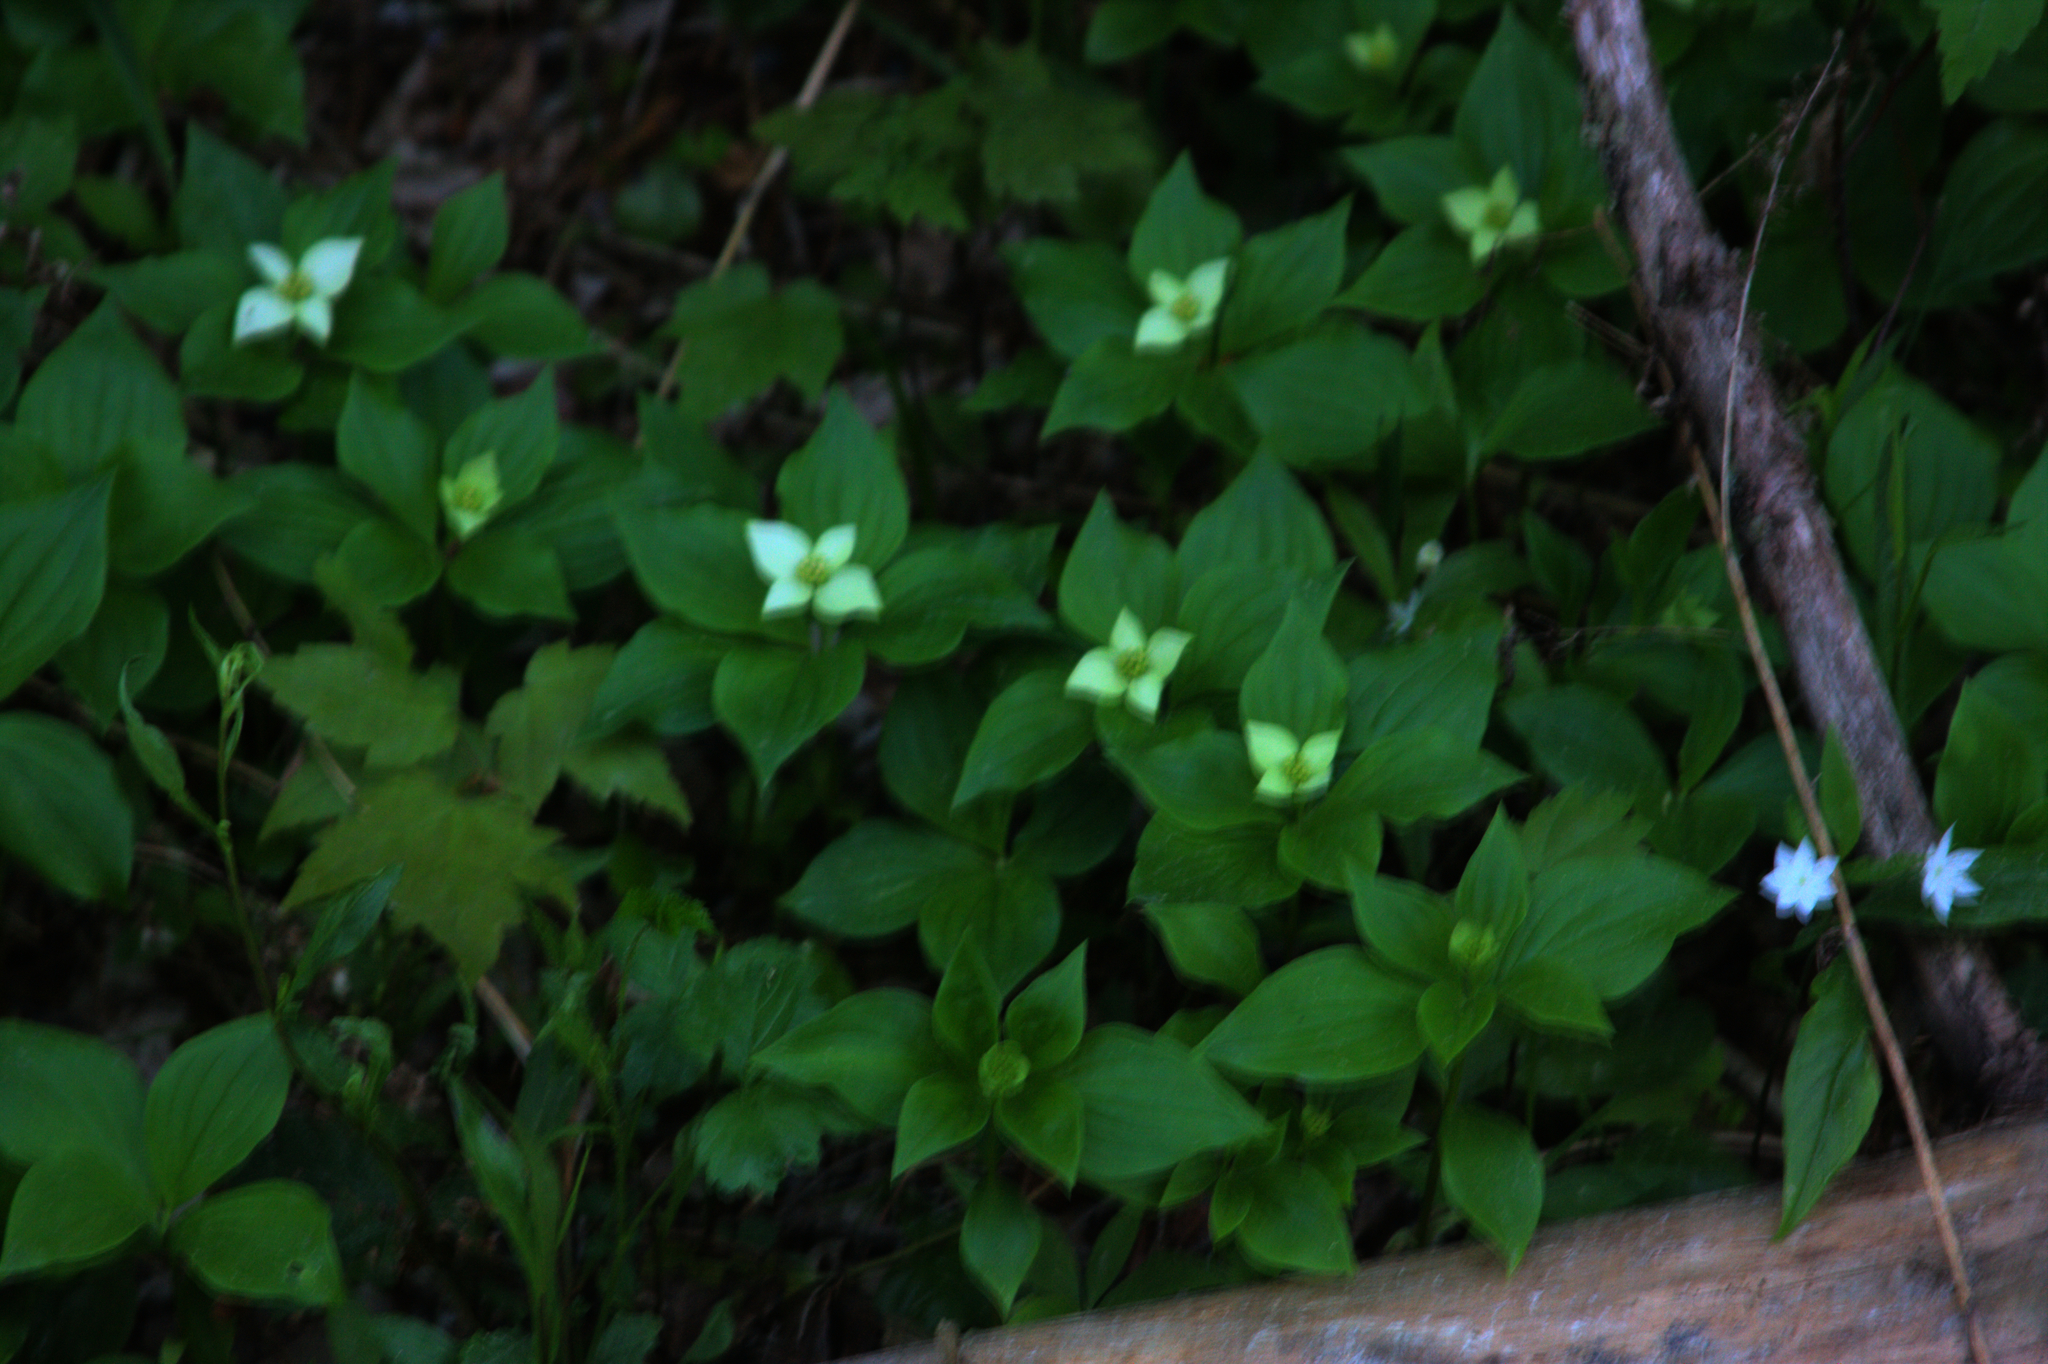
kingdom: Plantae
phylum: Tracheophyta
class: Magnoliopsida
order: Cornales
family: Cornaceae
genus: Cornus
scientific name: Cornus canadensis
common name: Creeping dogwood
